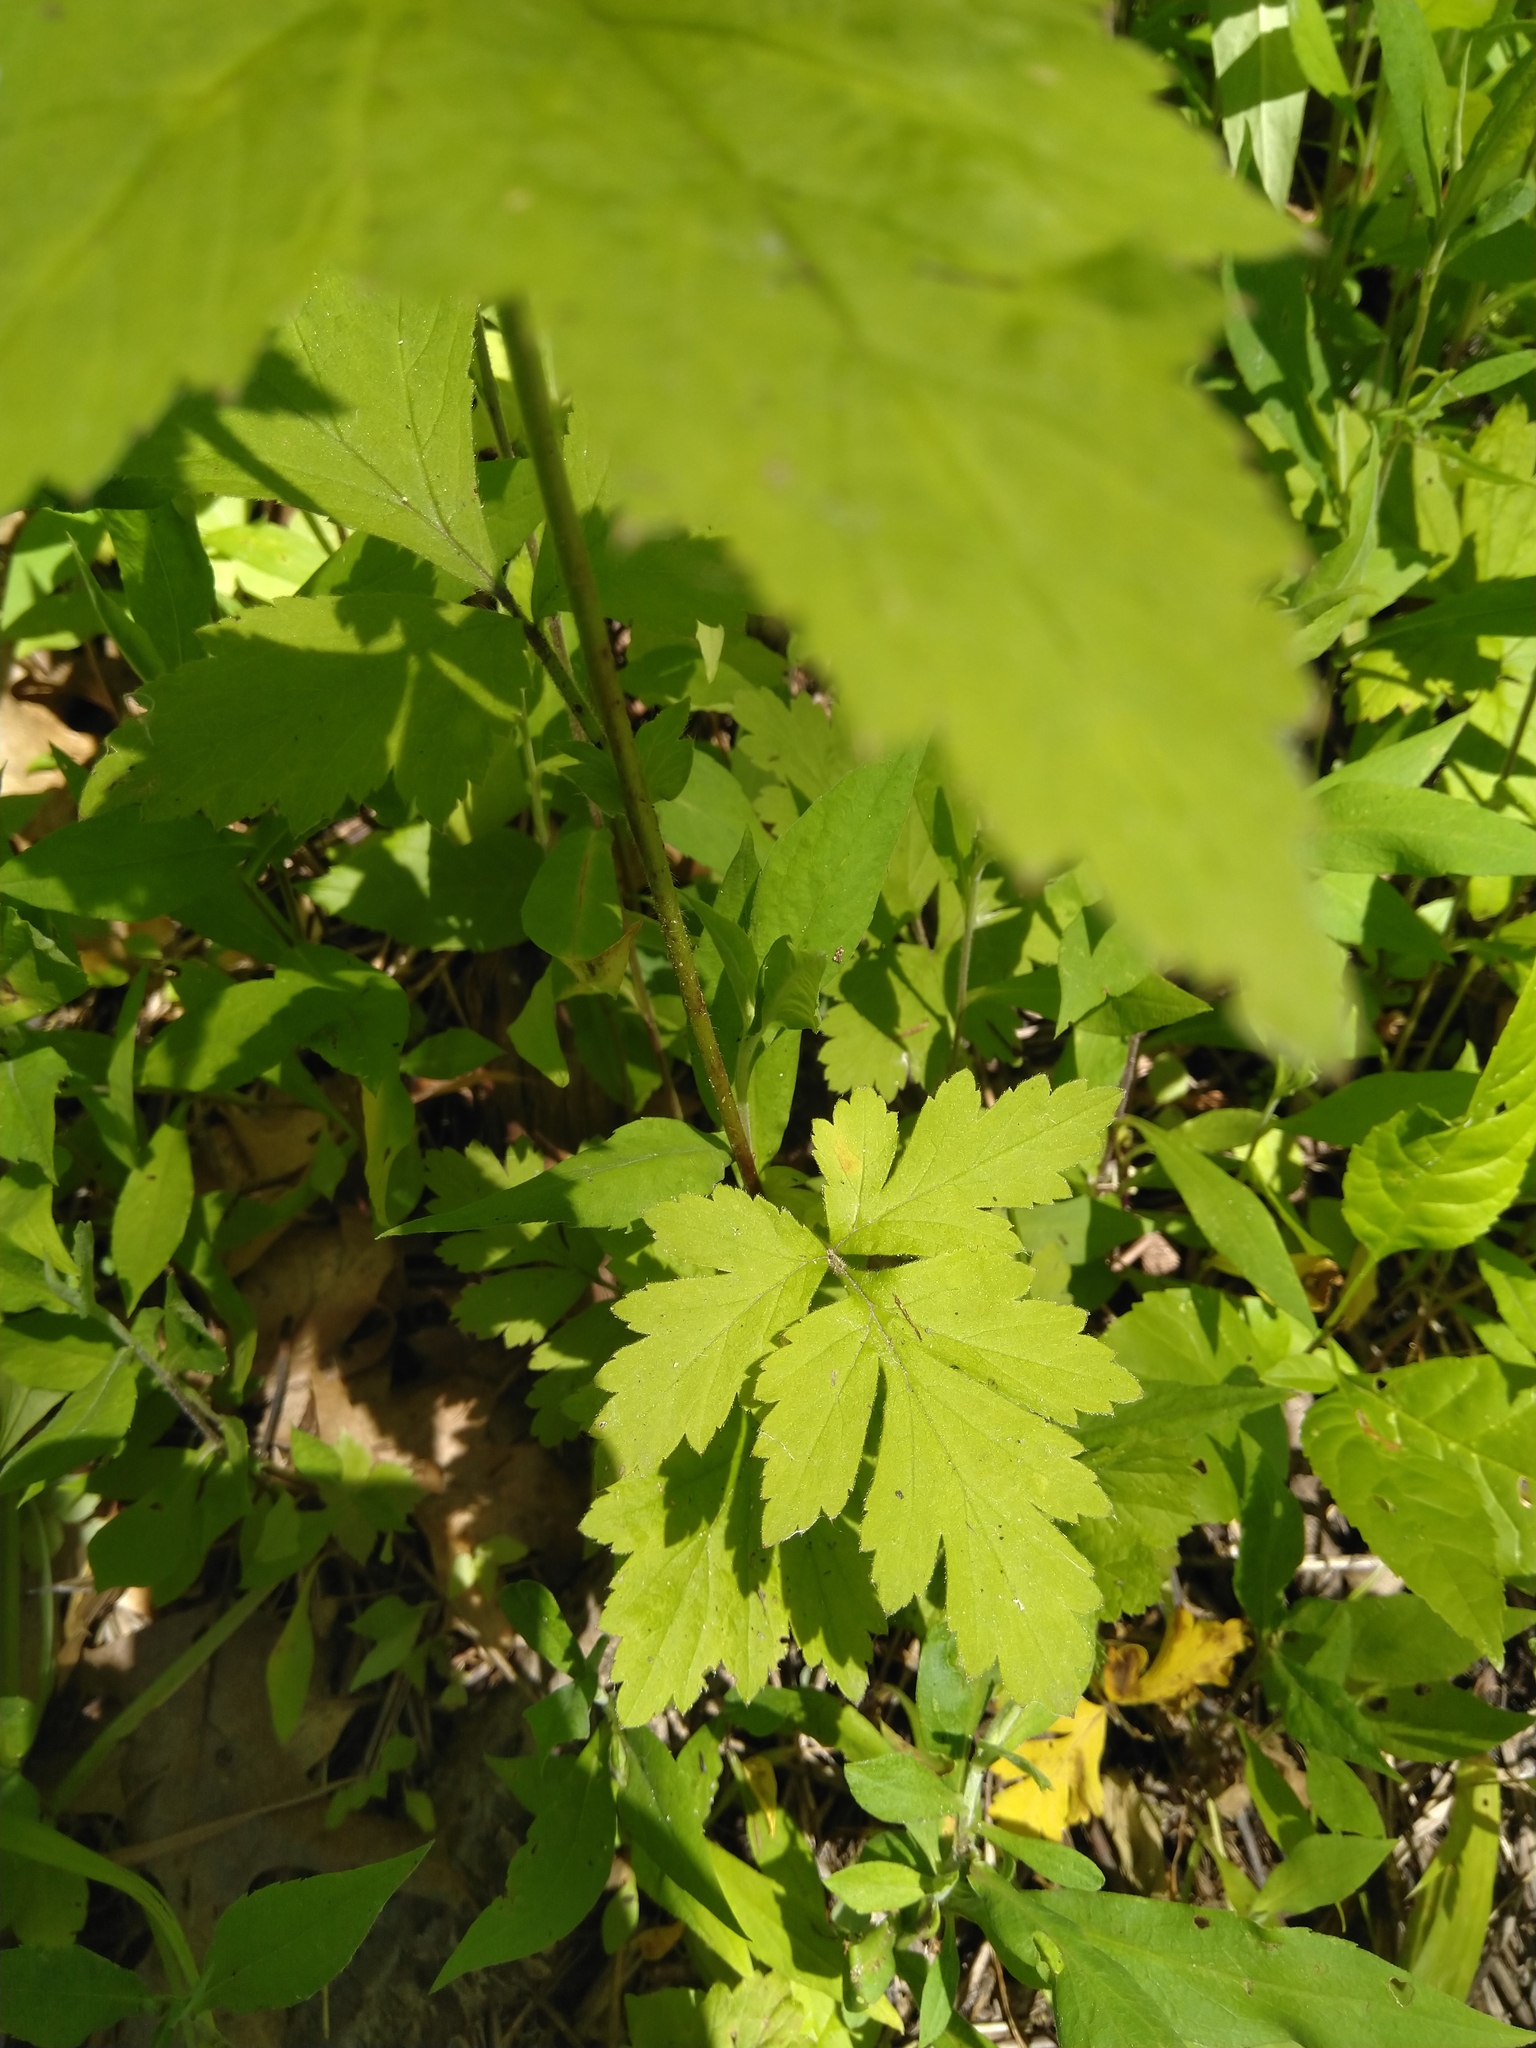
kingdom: Plantae
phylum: Tracheophyta
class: Magnoliopsida
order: Rosales
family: Rosaceae
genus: Geum
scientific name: Geum canadense
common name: White avens
